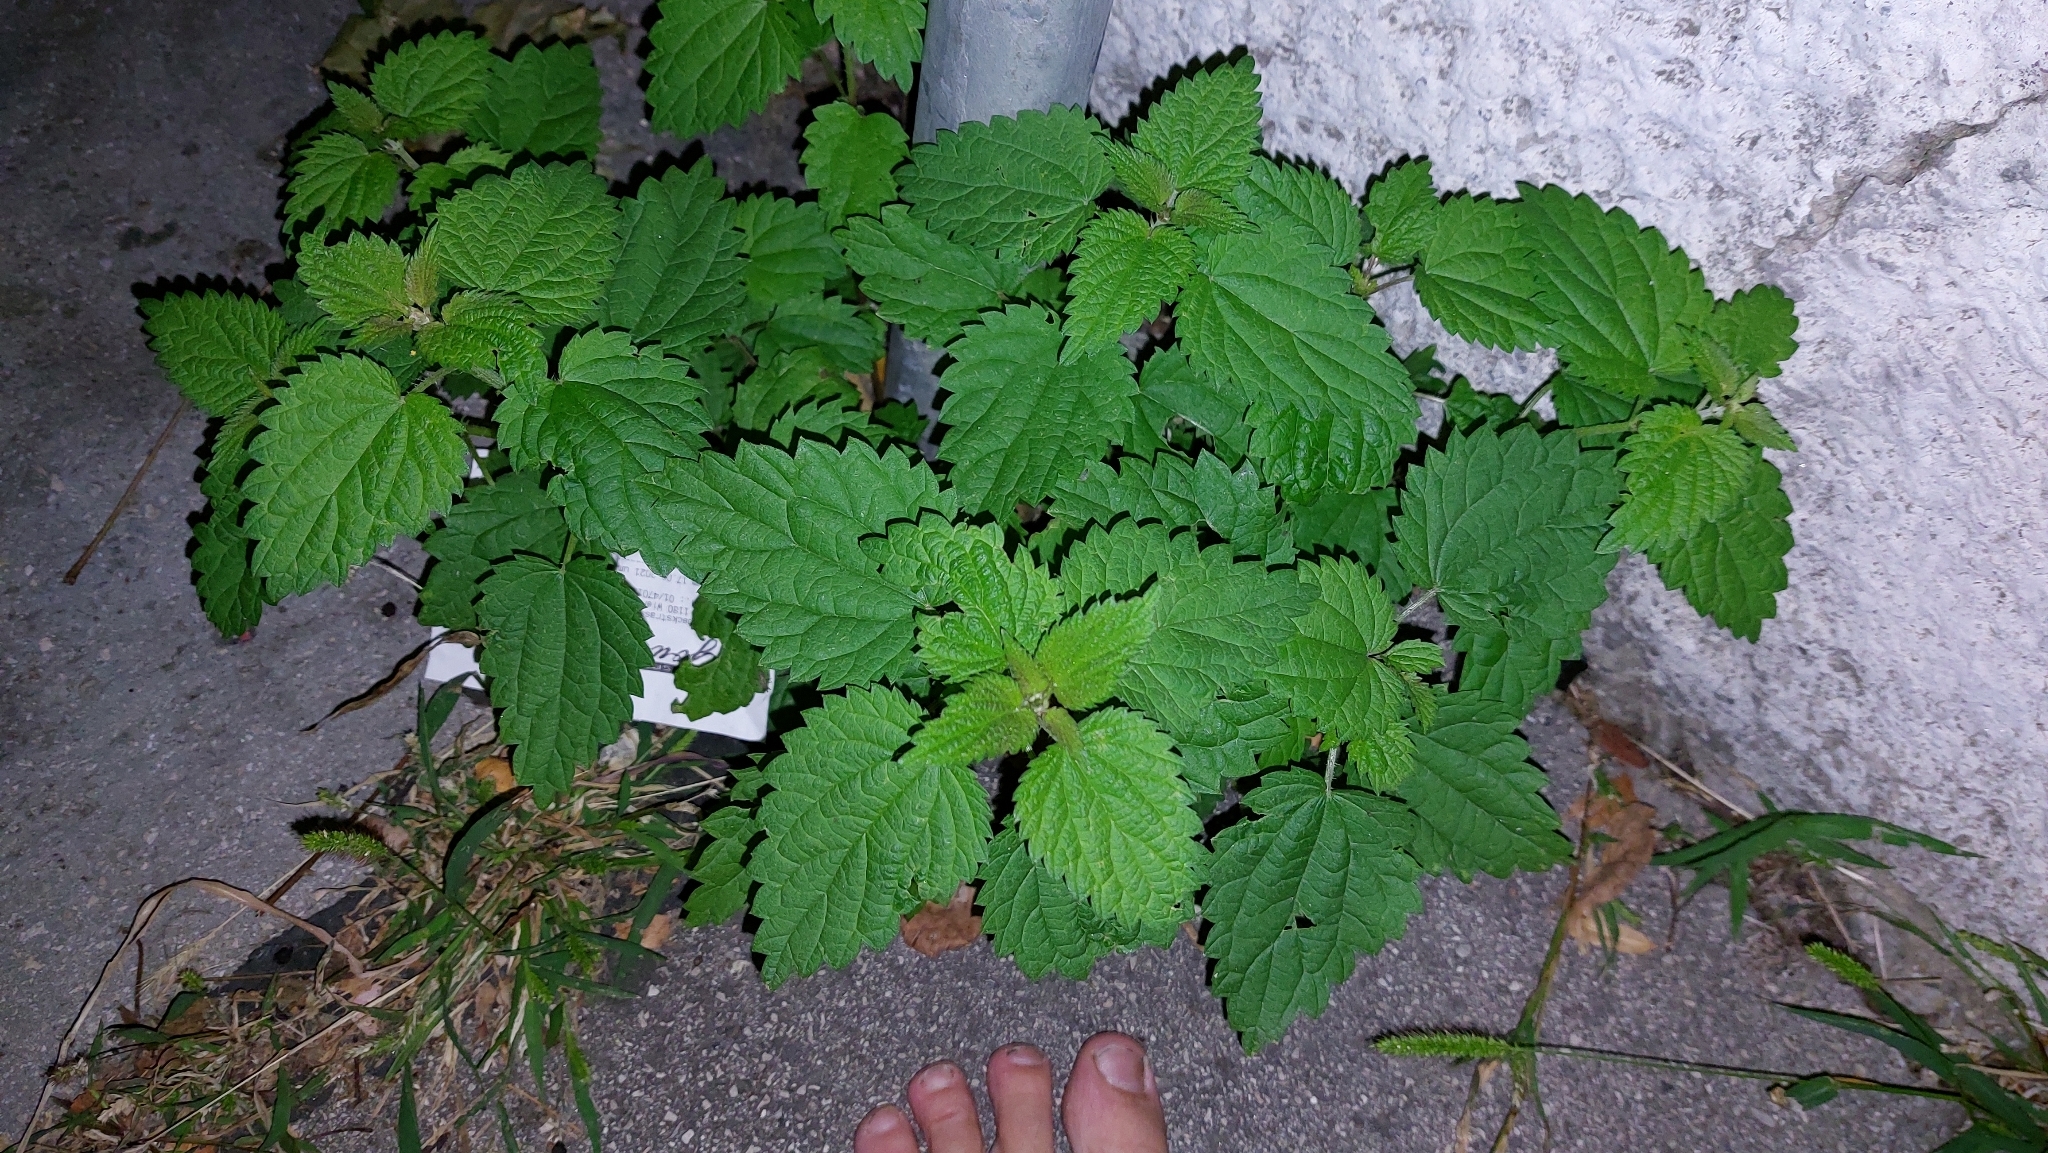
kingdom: Plantae
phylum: Tracheophyta
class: Magnoliopsida
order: Rosales
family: Urticaceae
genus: Urtica
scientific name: Urtica dioica
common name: Common nettle
